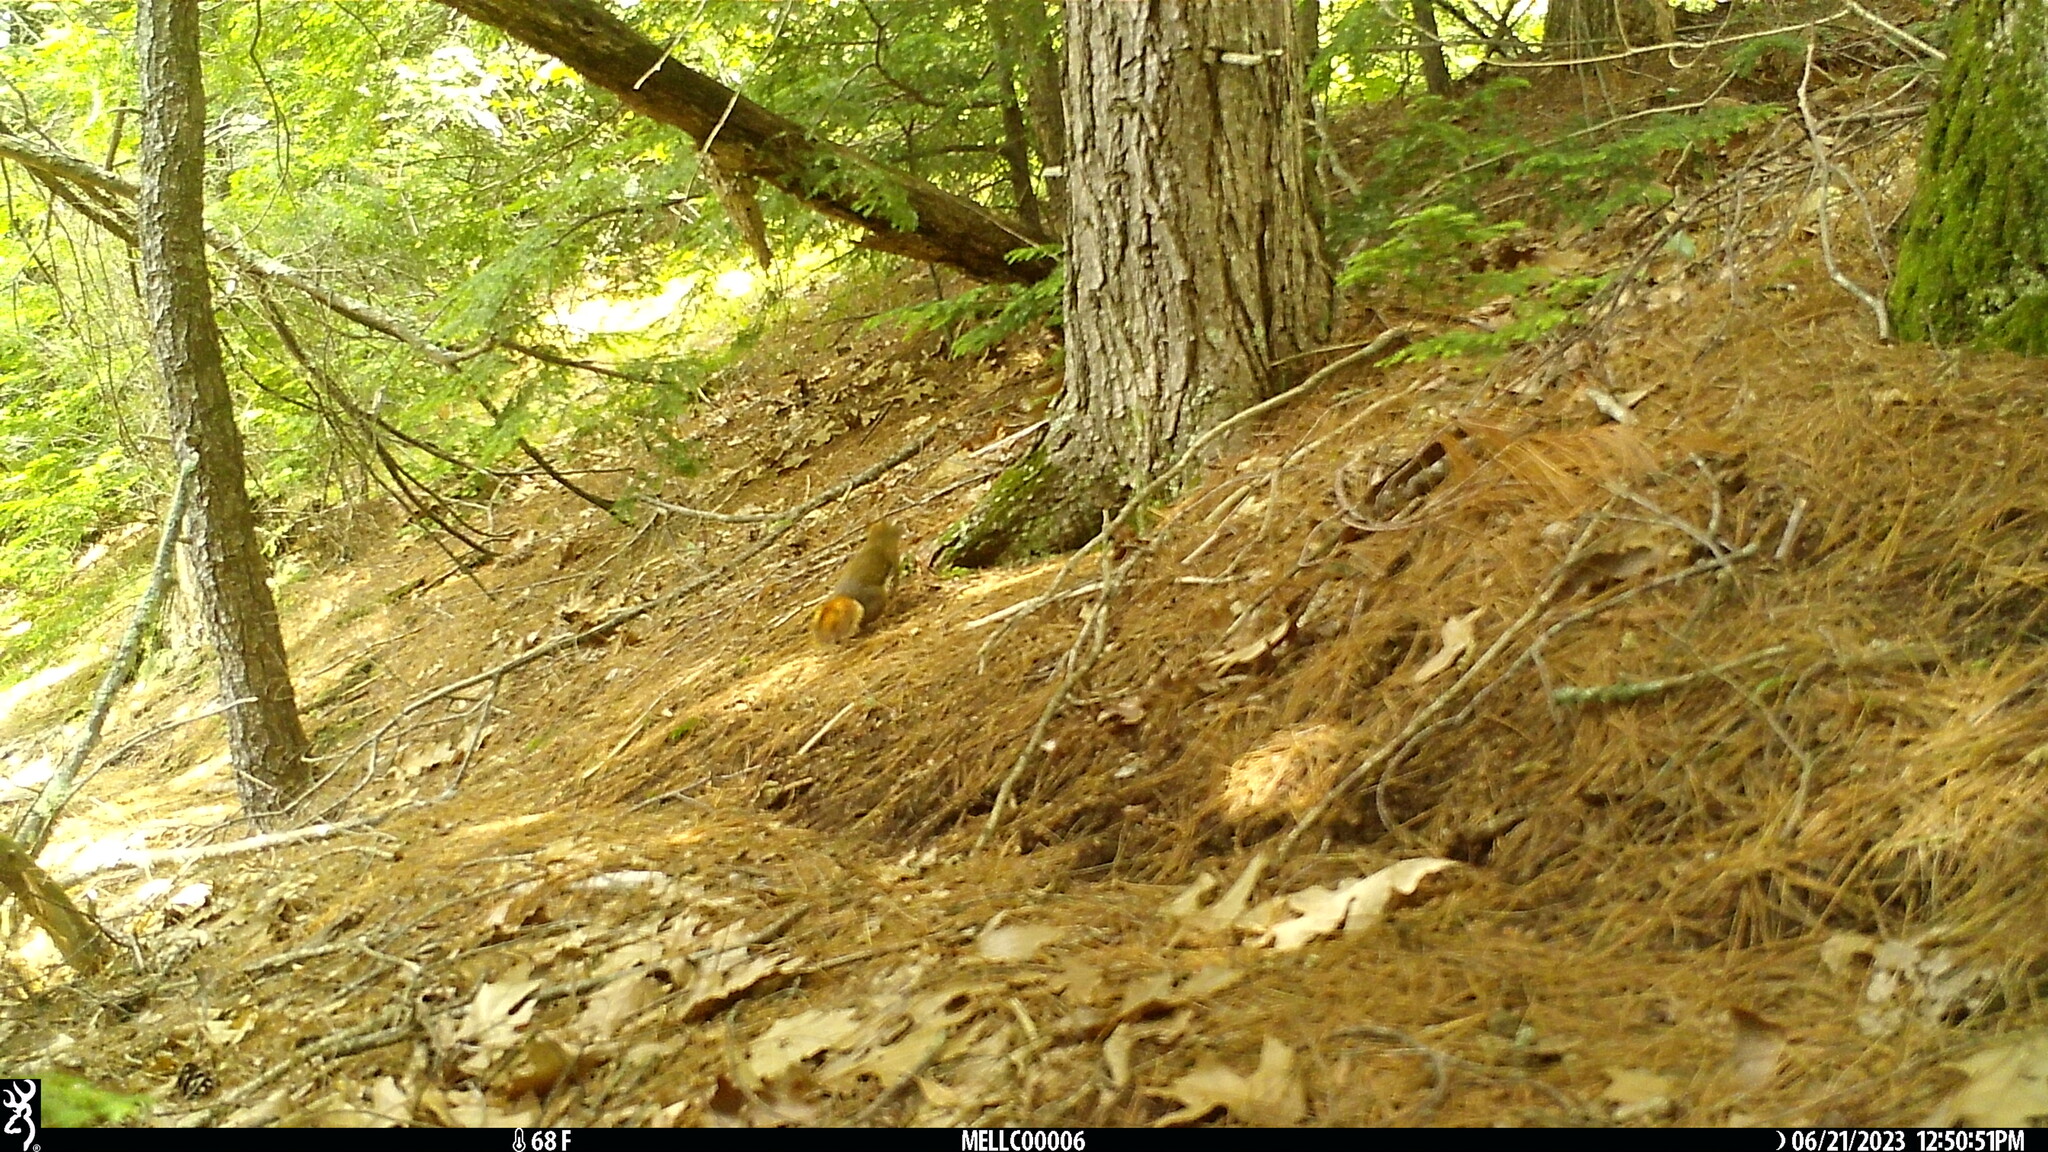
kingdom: Animalia
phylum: Chordata
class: Mammalia
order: Rodentia
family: Sciuridae
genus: Tamiasciurus
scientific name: Tamiasciurus hudsonicus
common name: Red squirrel
